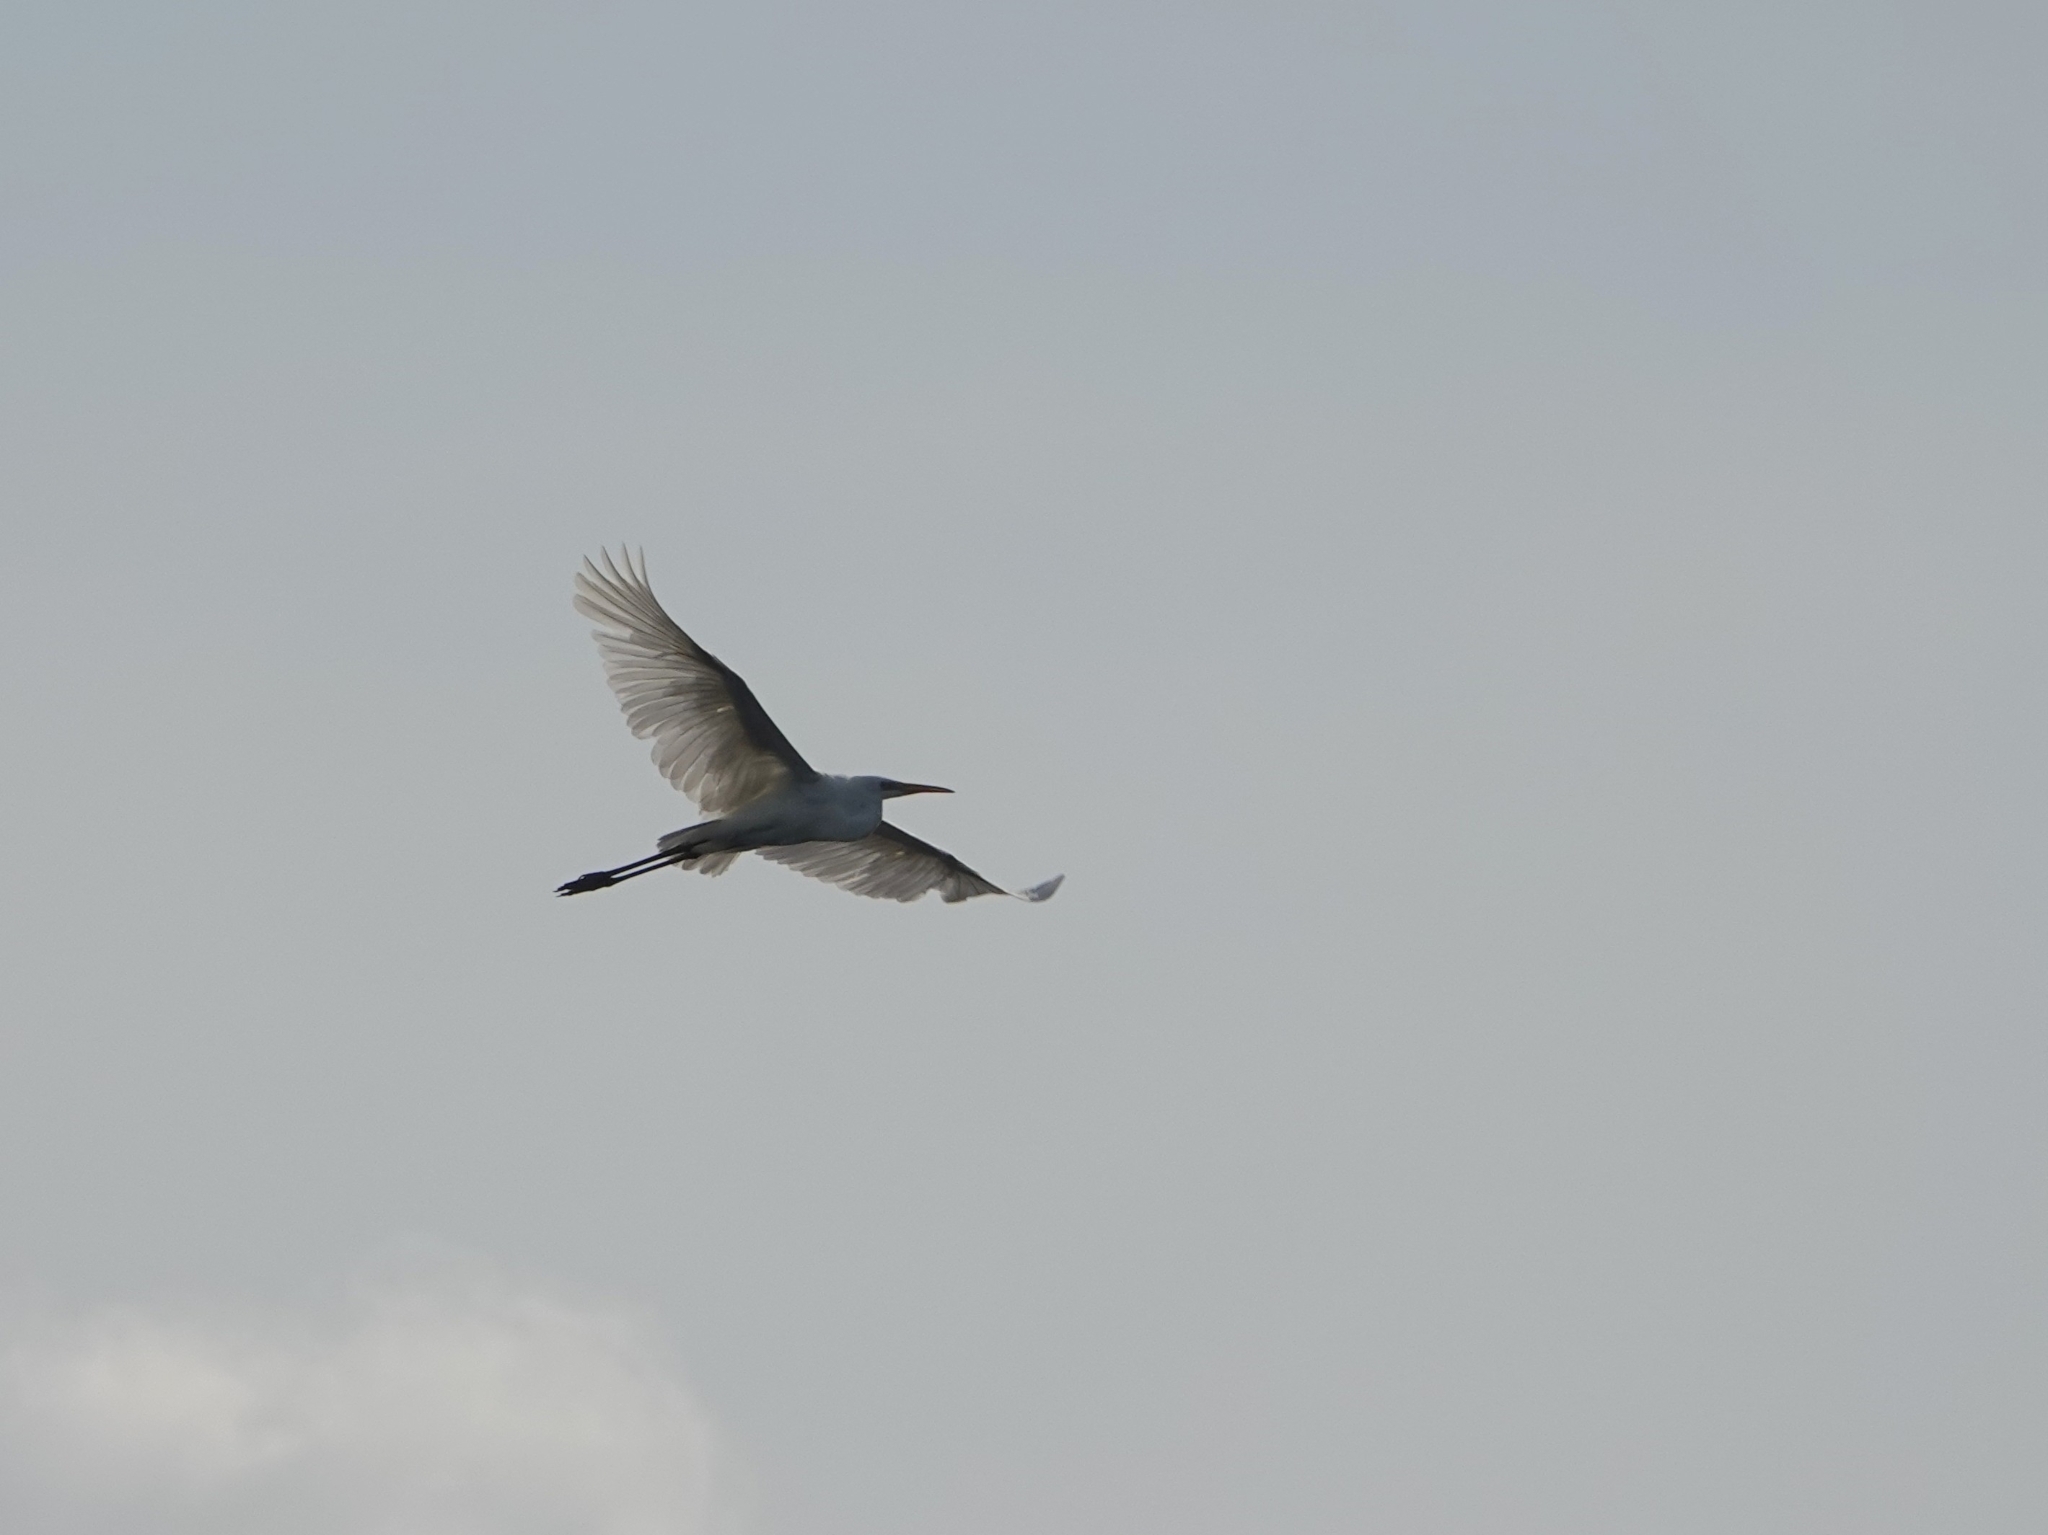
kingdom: Animalia
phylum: Chordata
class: Aves
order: Pelecaniformes
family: Ardeidae
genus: Ardea
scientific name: Ardea alba
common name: Great egret
